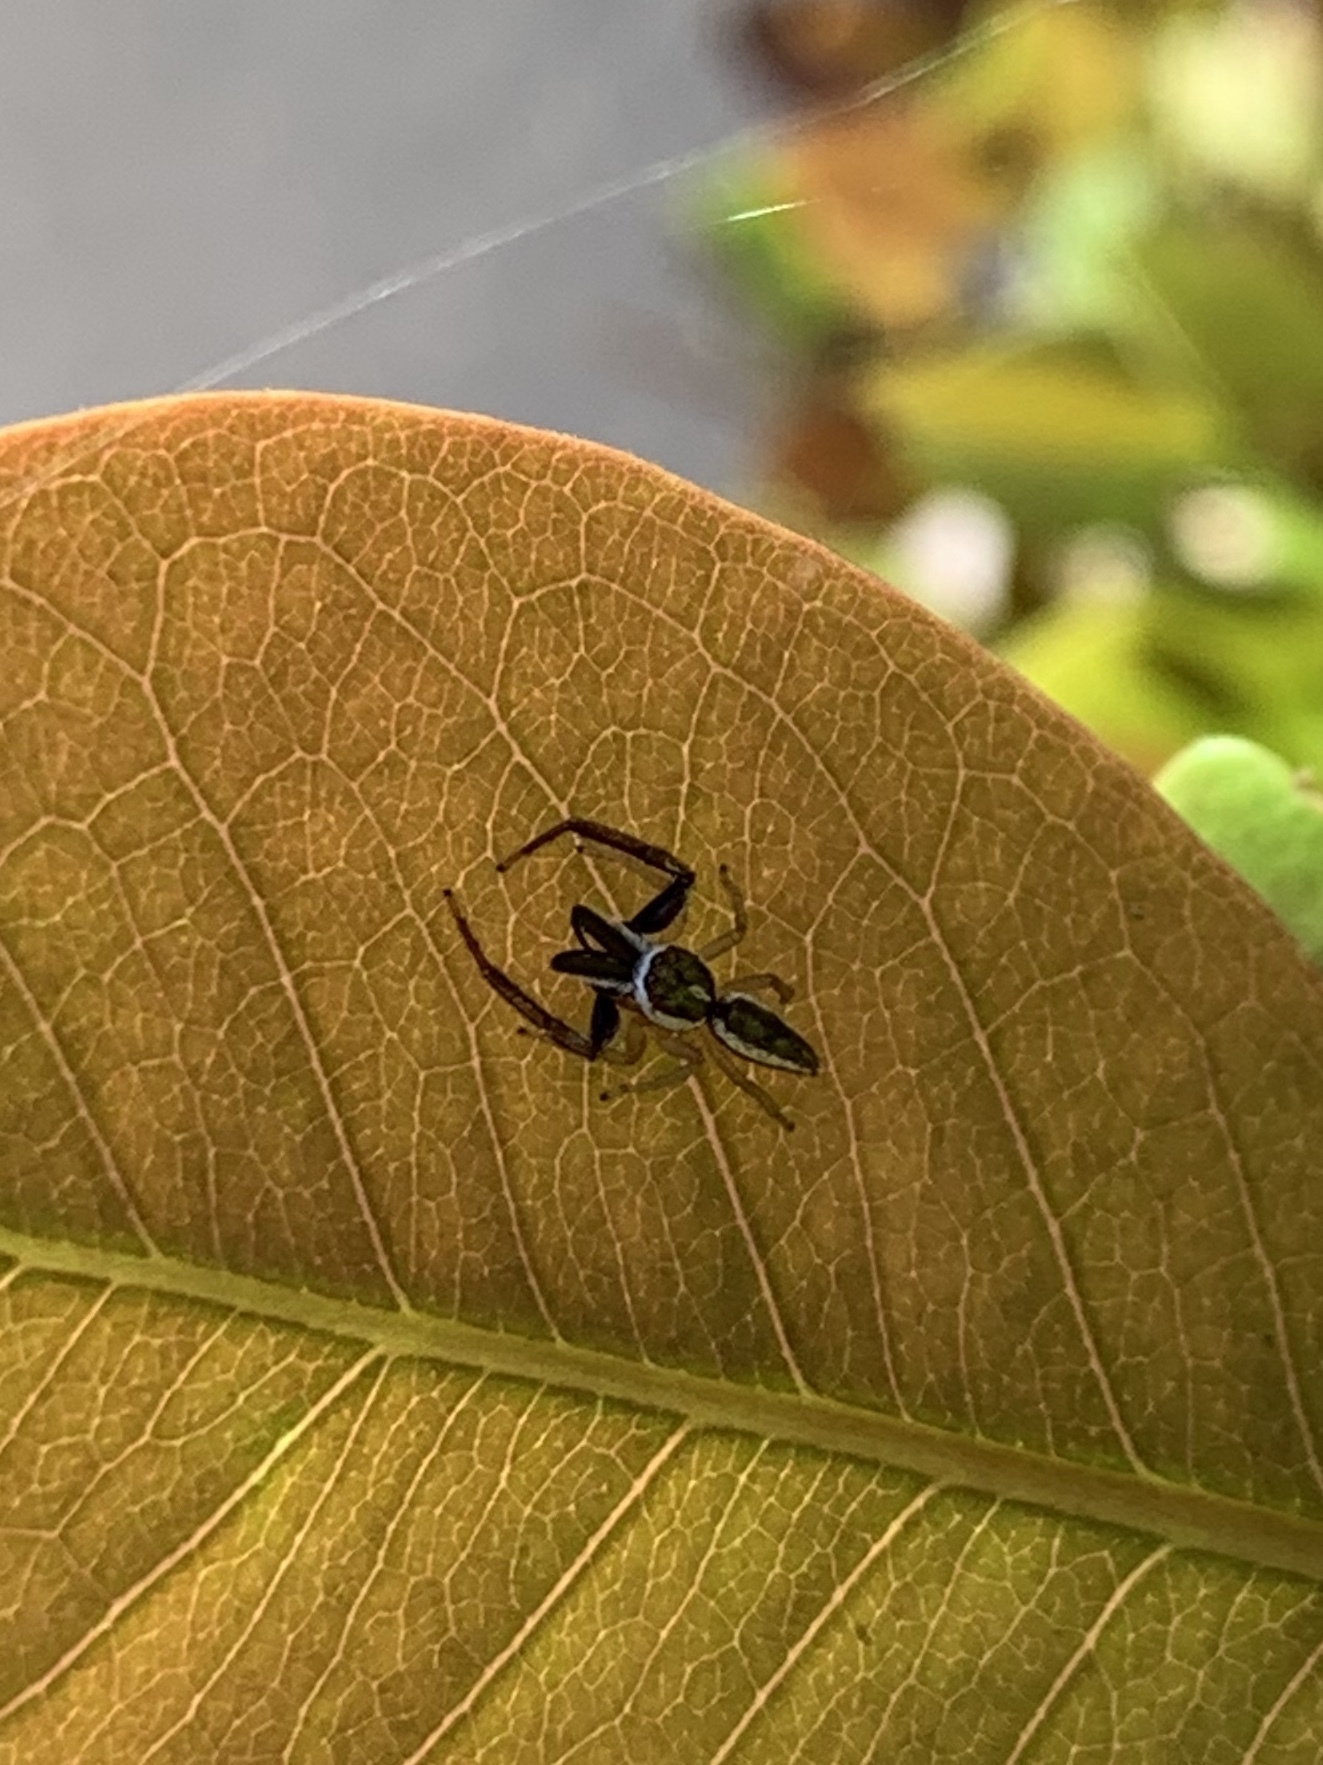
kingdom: Animalia
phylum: Arthropoda
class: Arachnida
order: Araneae
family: Salticidae
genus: Hentzia
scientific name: Hentzia palmarum
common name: Common hentz jumping spider
